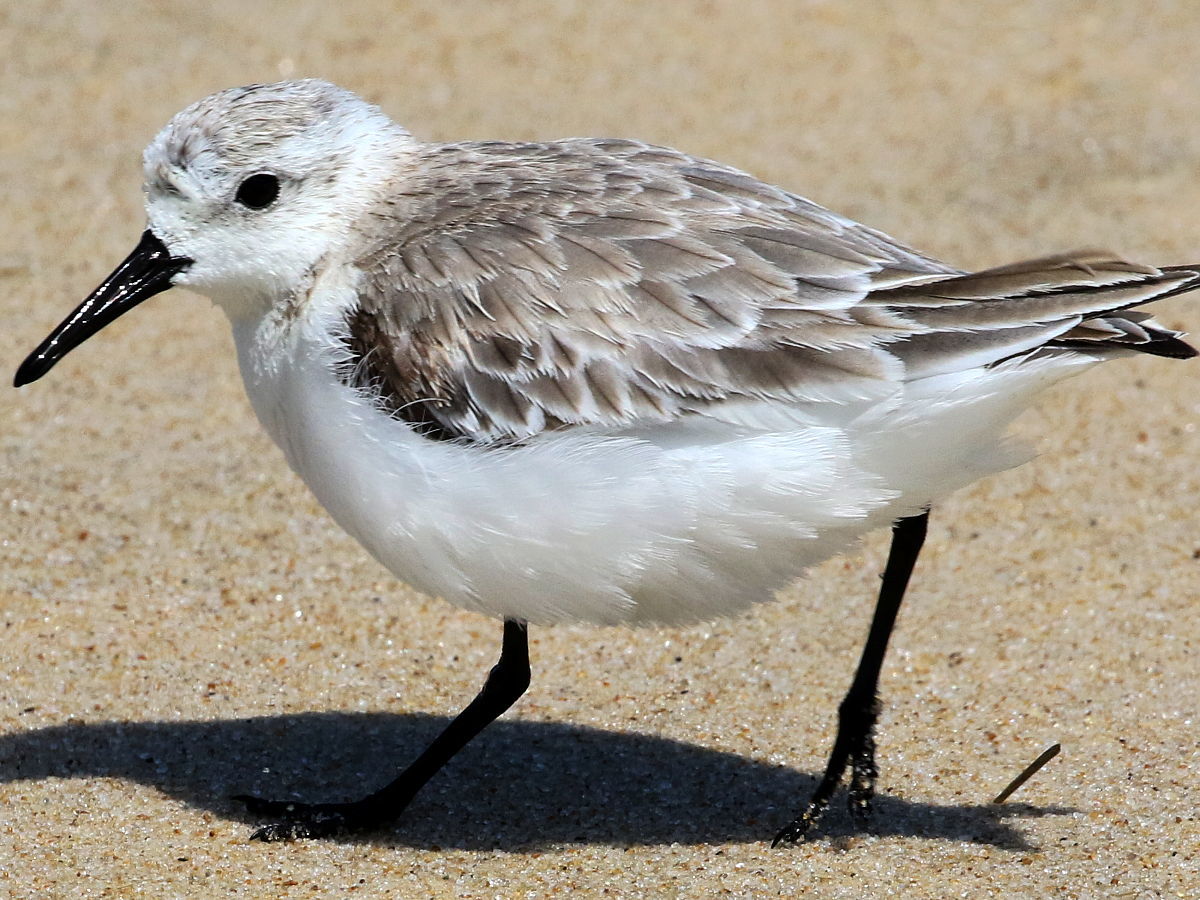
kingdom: Animalia
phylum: Chordata
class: Aves
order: Charadriiformes
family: Scolopacidae
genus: Calidris
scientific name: Calidris alba
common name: Sanderling
